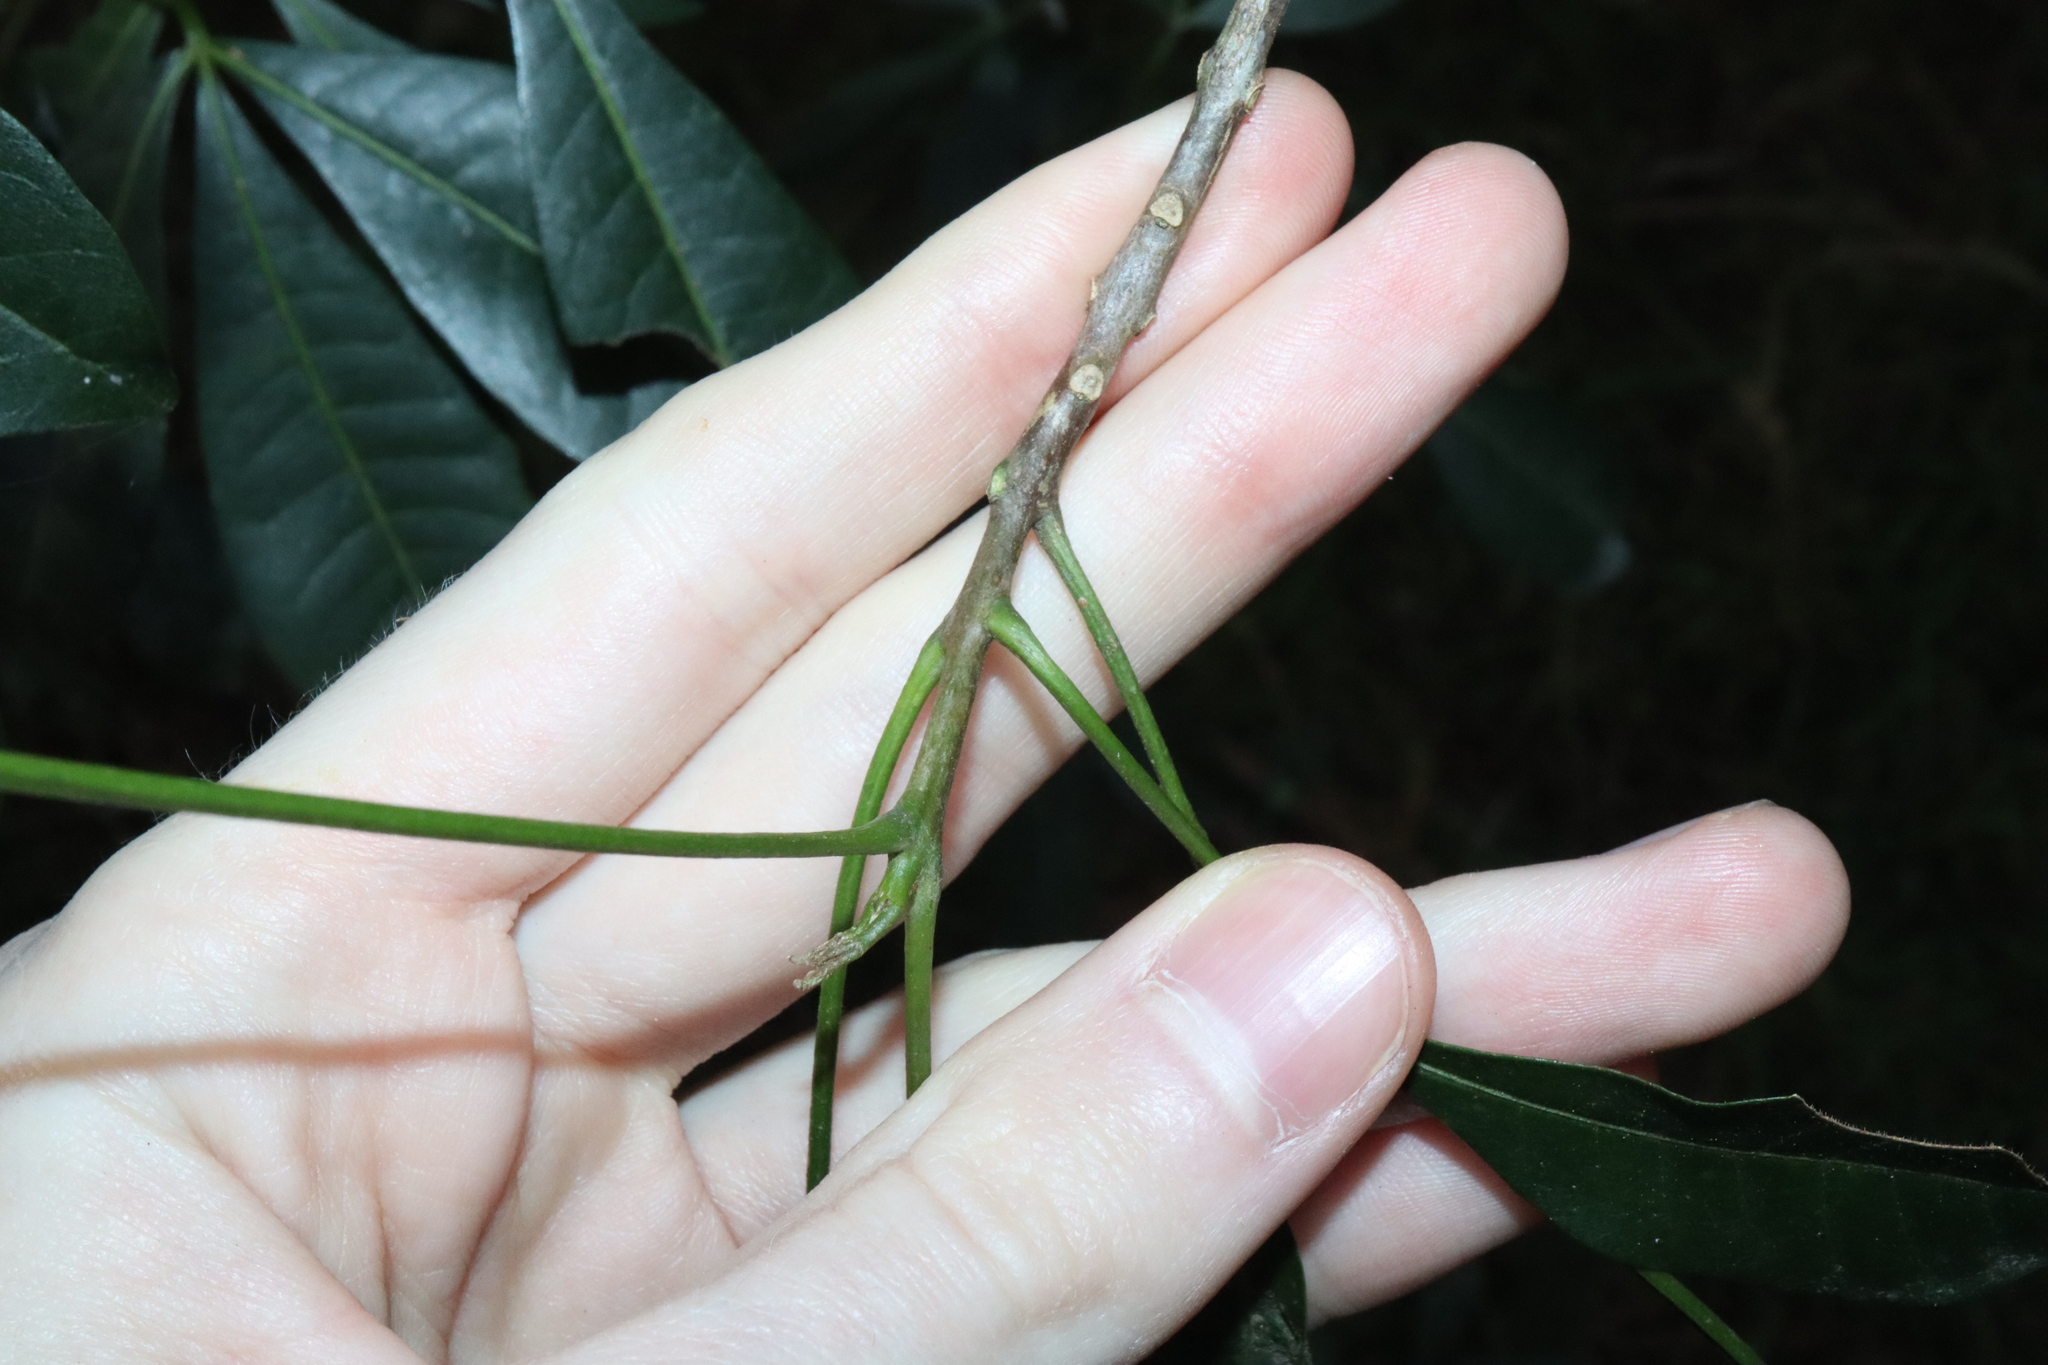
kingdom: Plantae
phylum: Tracheophyta
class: Magnoliopsida
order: Sapindales
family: Rutaceae
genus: Melicope
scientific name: Melicope micrococca
